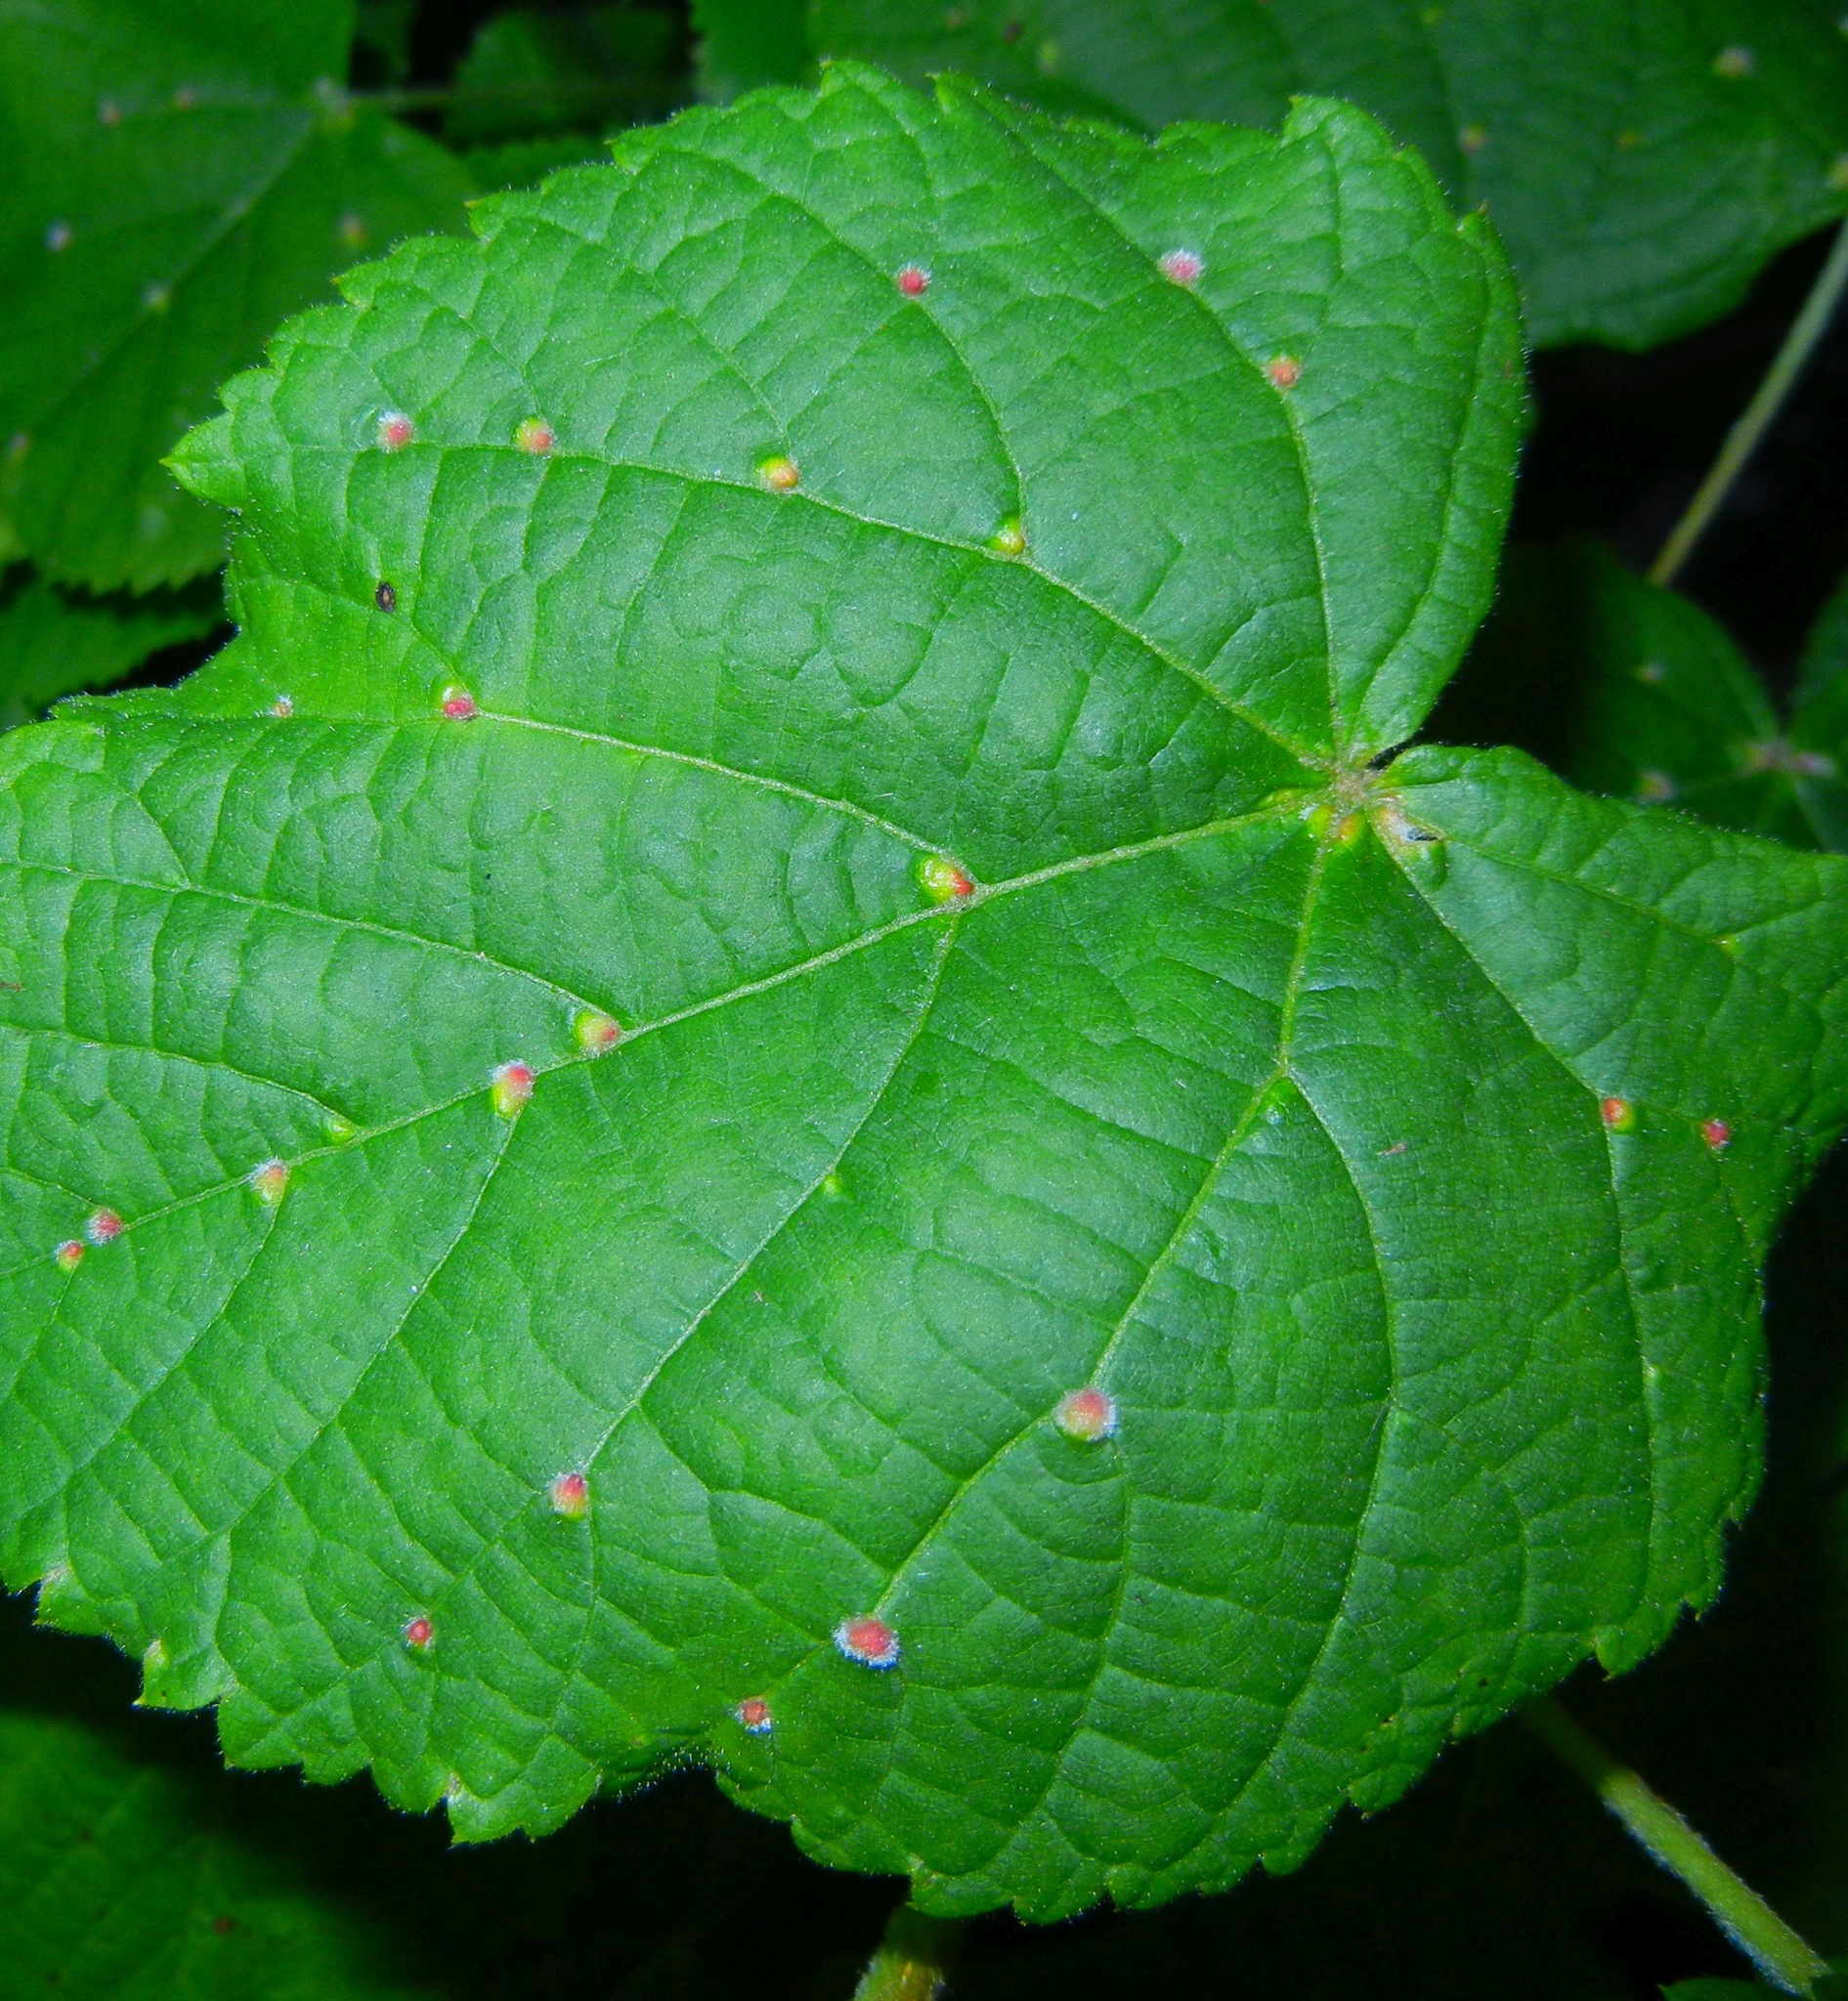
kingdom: Animalia
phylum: Arthropoda
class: Arachnida
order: Trombidiformes
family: Eriophyidae
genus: Eriophyes
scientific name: Eriophyes exilis
